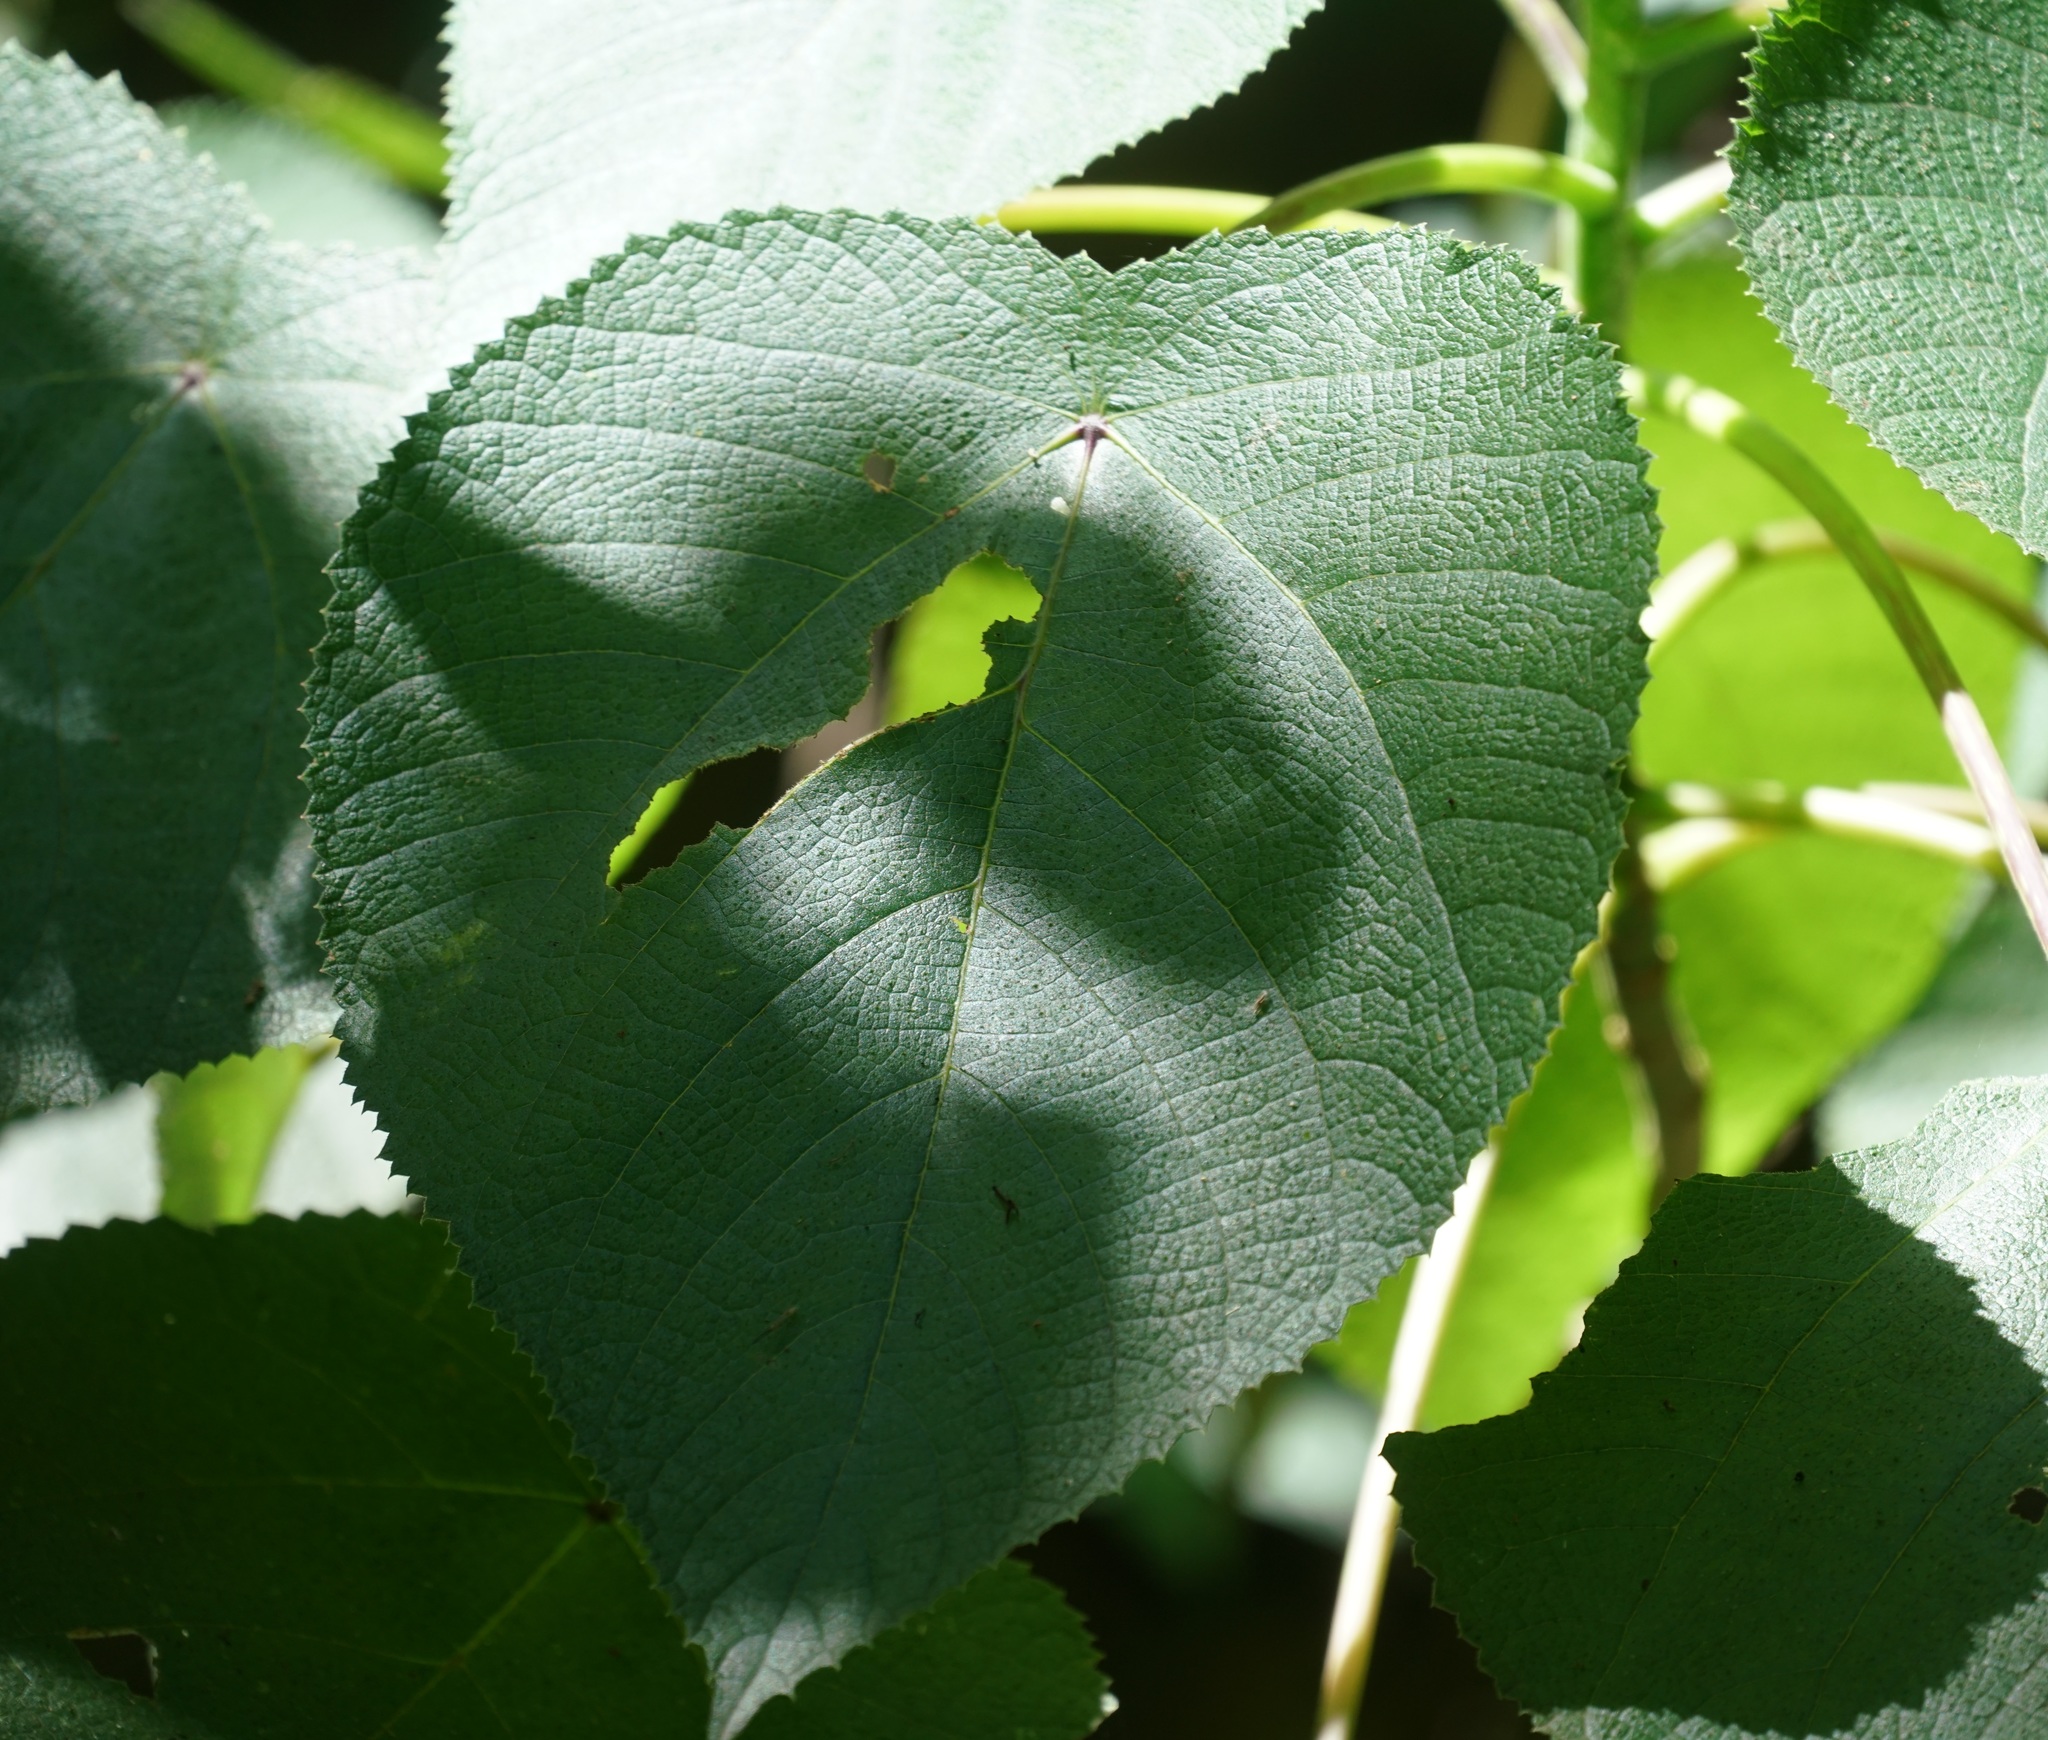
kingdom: Plantae
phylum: Tracheophyta
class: Magnoliopsida
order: Rosales
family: Urticaceae
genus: Dendrocnide
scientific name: Dendrocnide moroides
